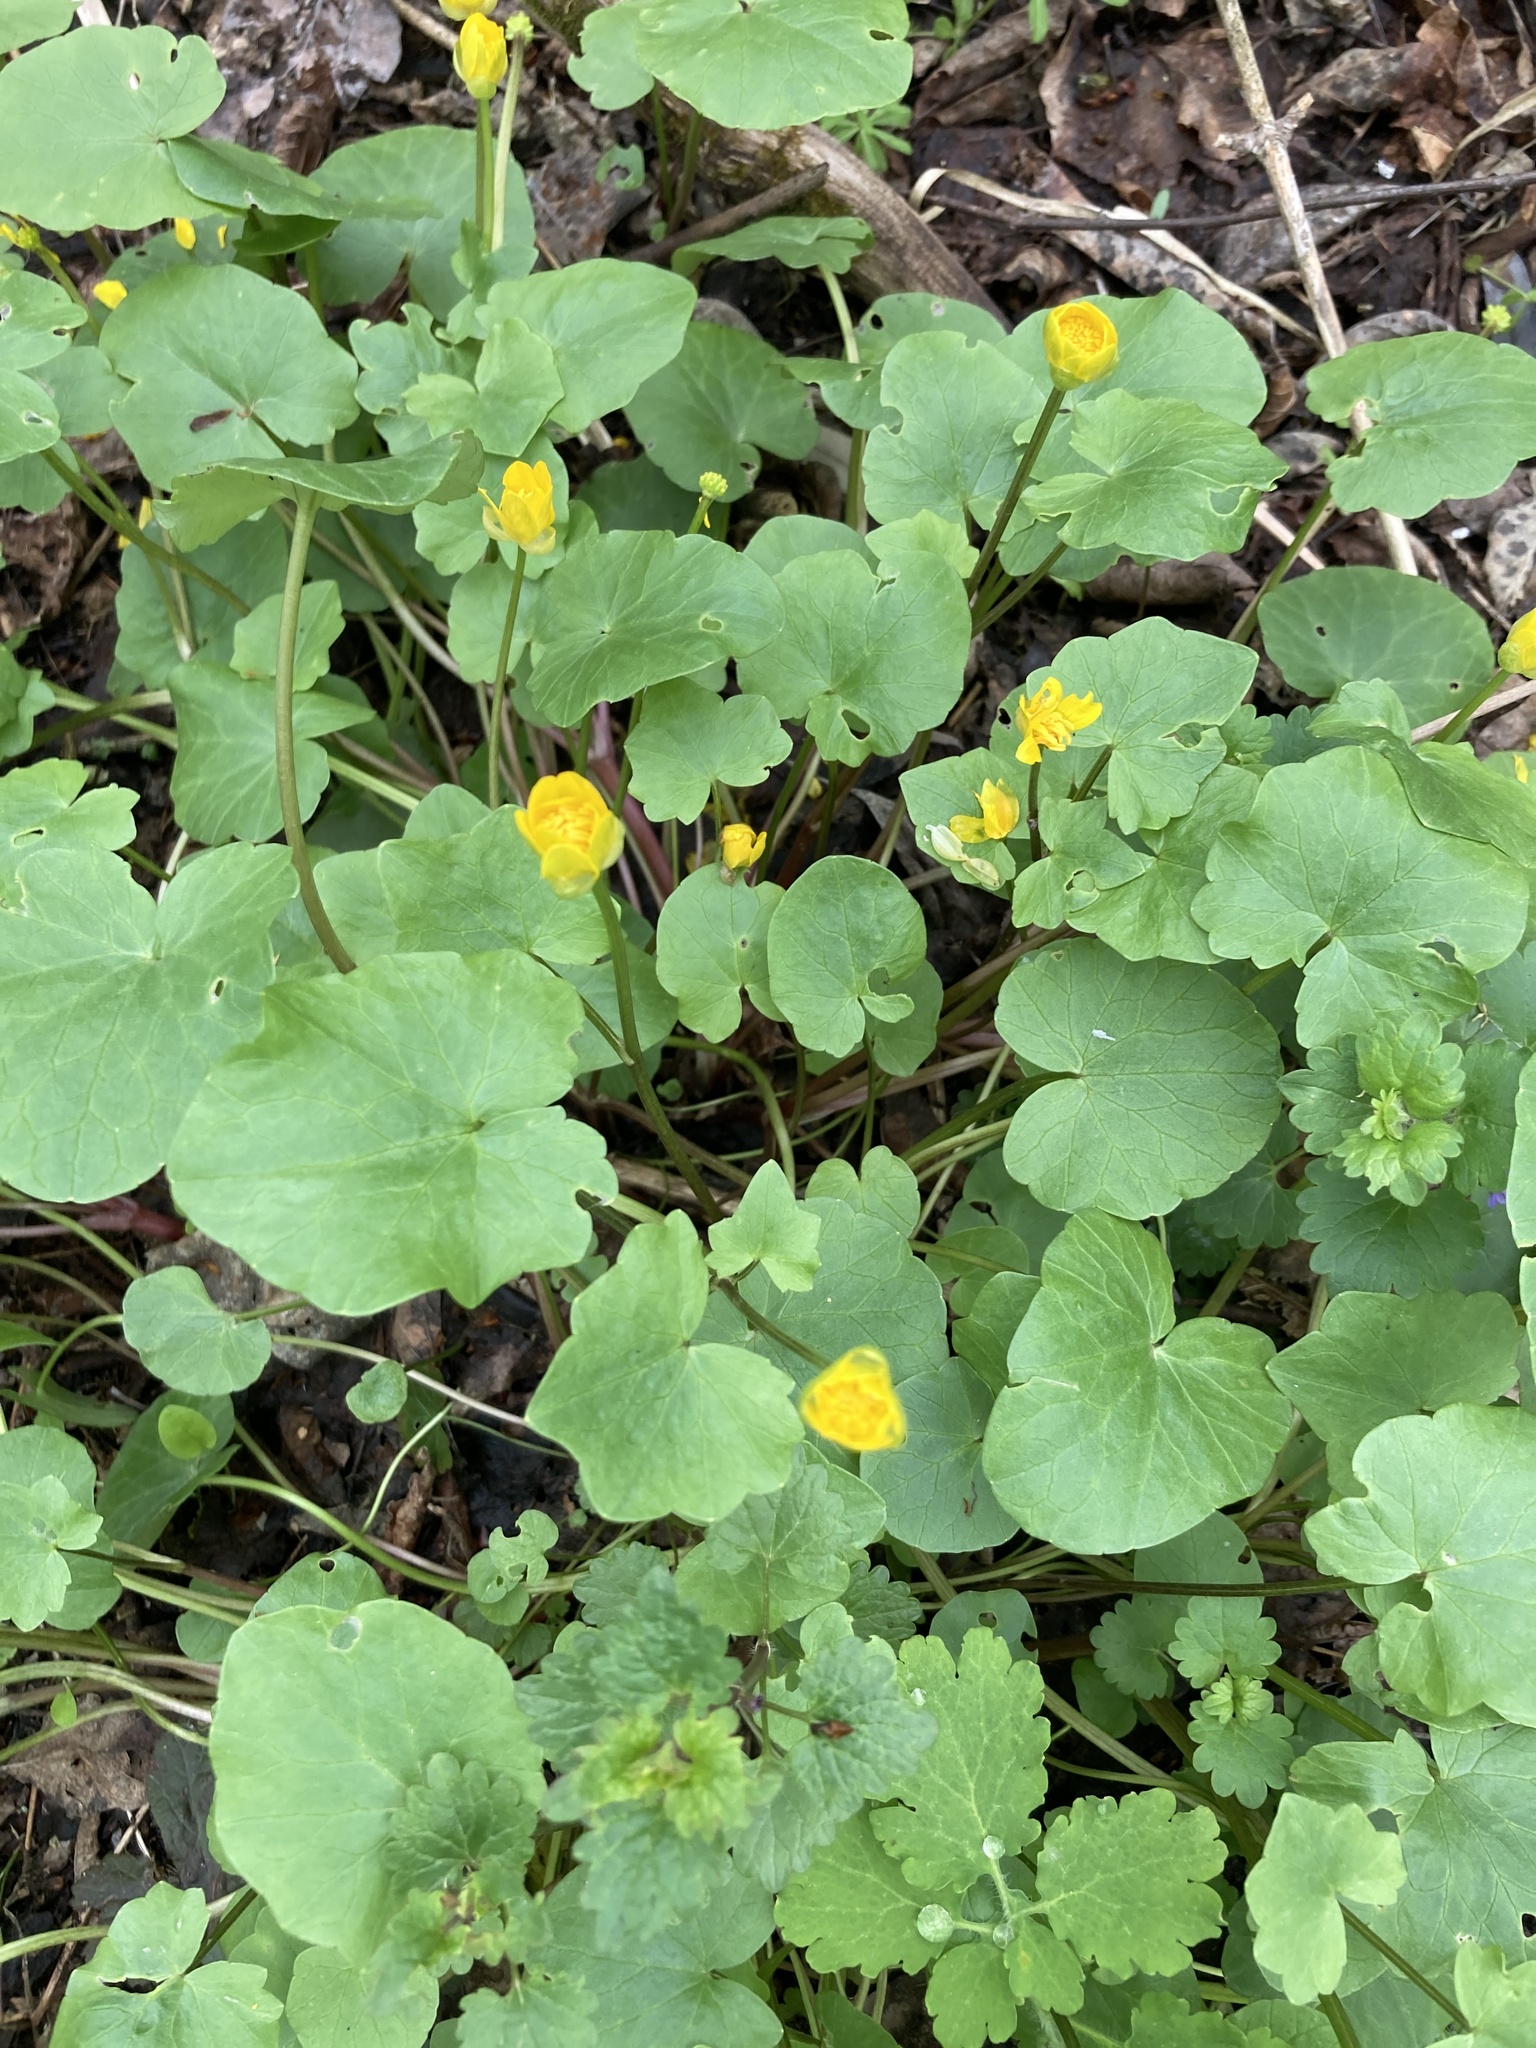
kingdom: Plantae
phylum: Tracheophyta
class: Magnoliopsida
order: Ranunculales
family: Ranunculaceae
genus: Ficaria
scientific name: Ficaria verna
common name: Lesser celandine
